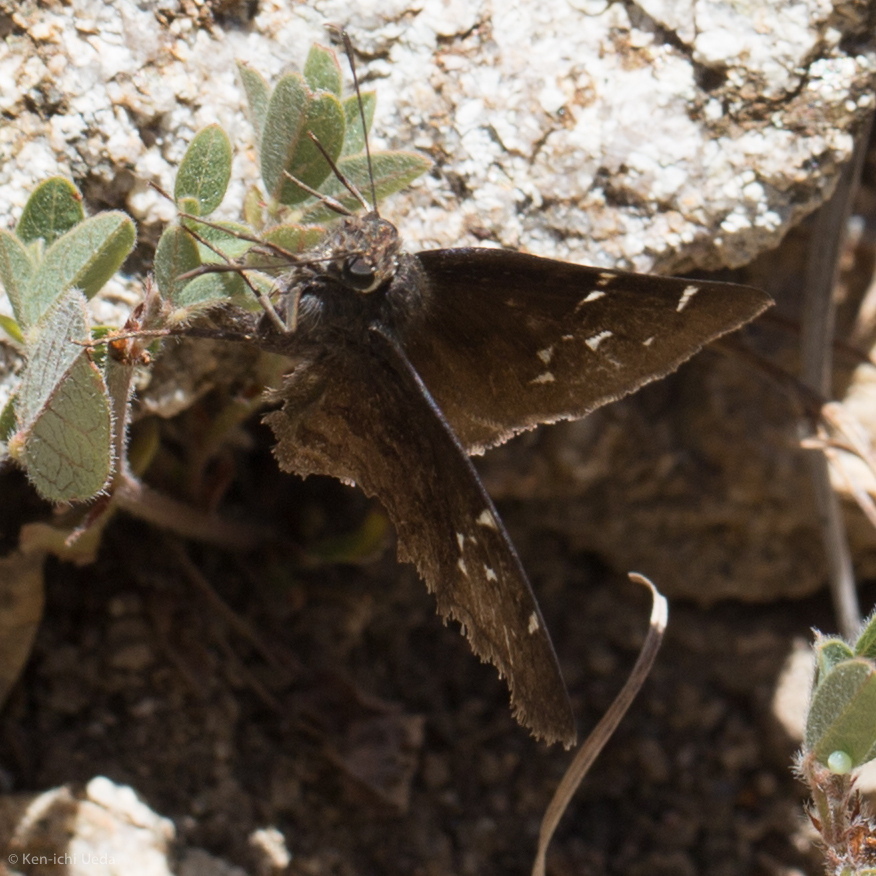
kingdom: Animalia
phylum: Arthropoda
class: Insecta
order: Lepidoptera
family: Hesperiidae
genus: Thorybes
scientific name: Thorybes pylades
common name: Northern cloudywing
